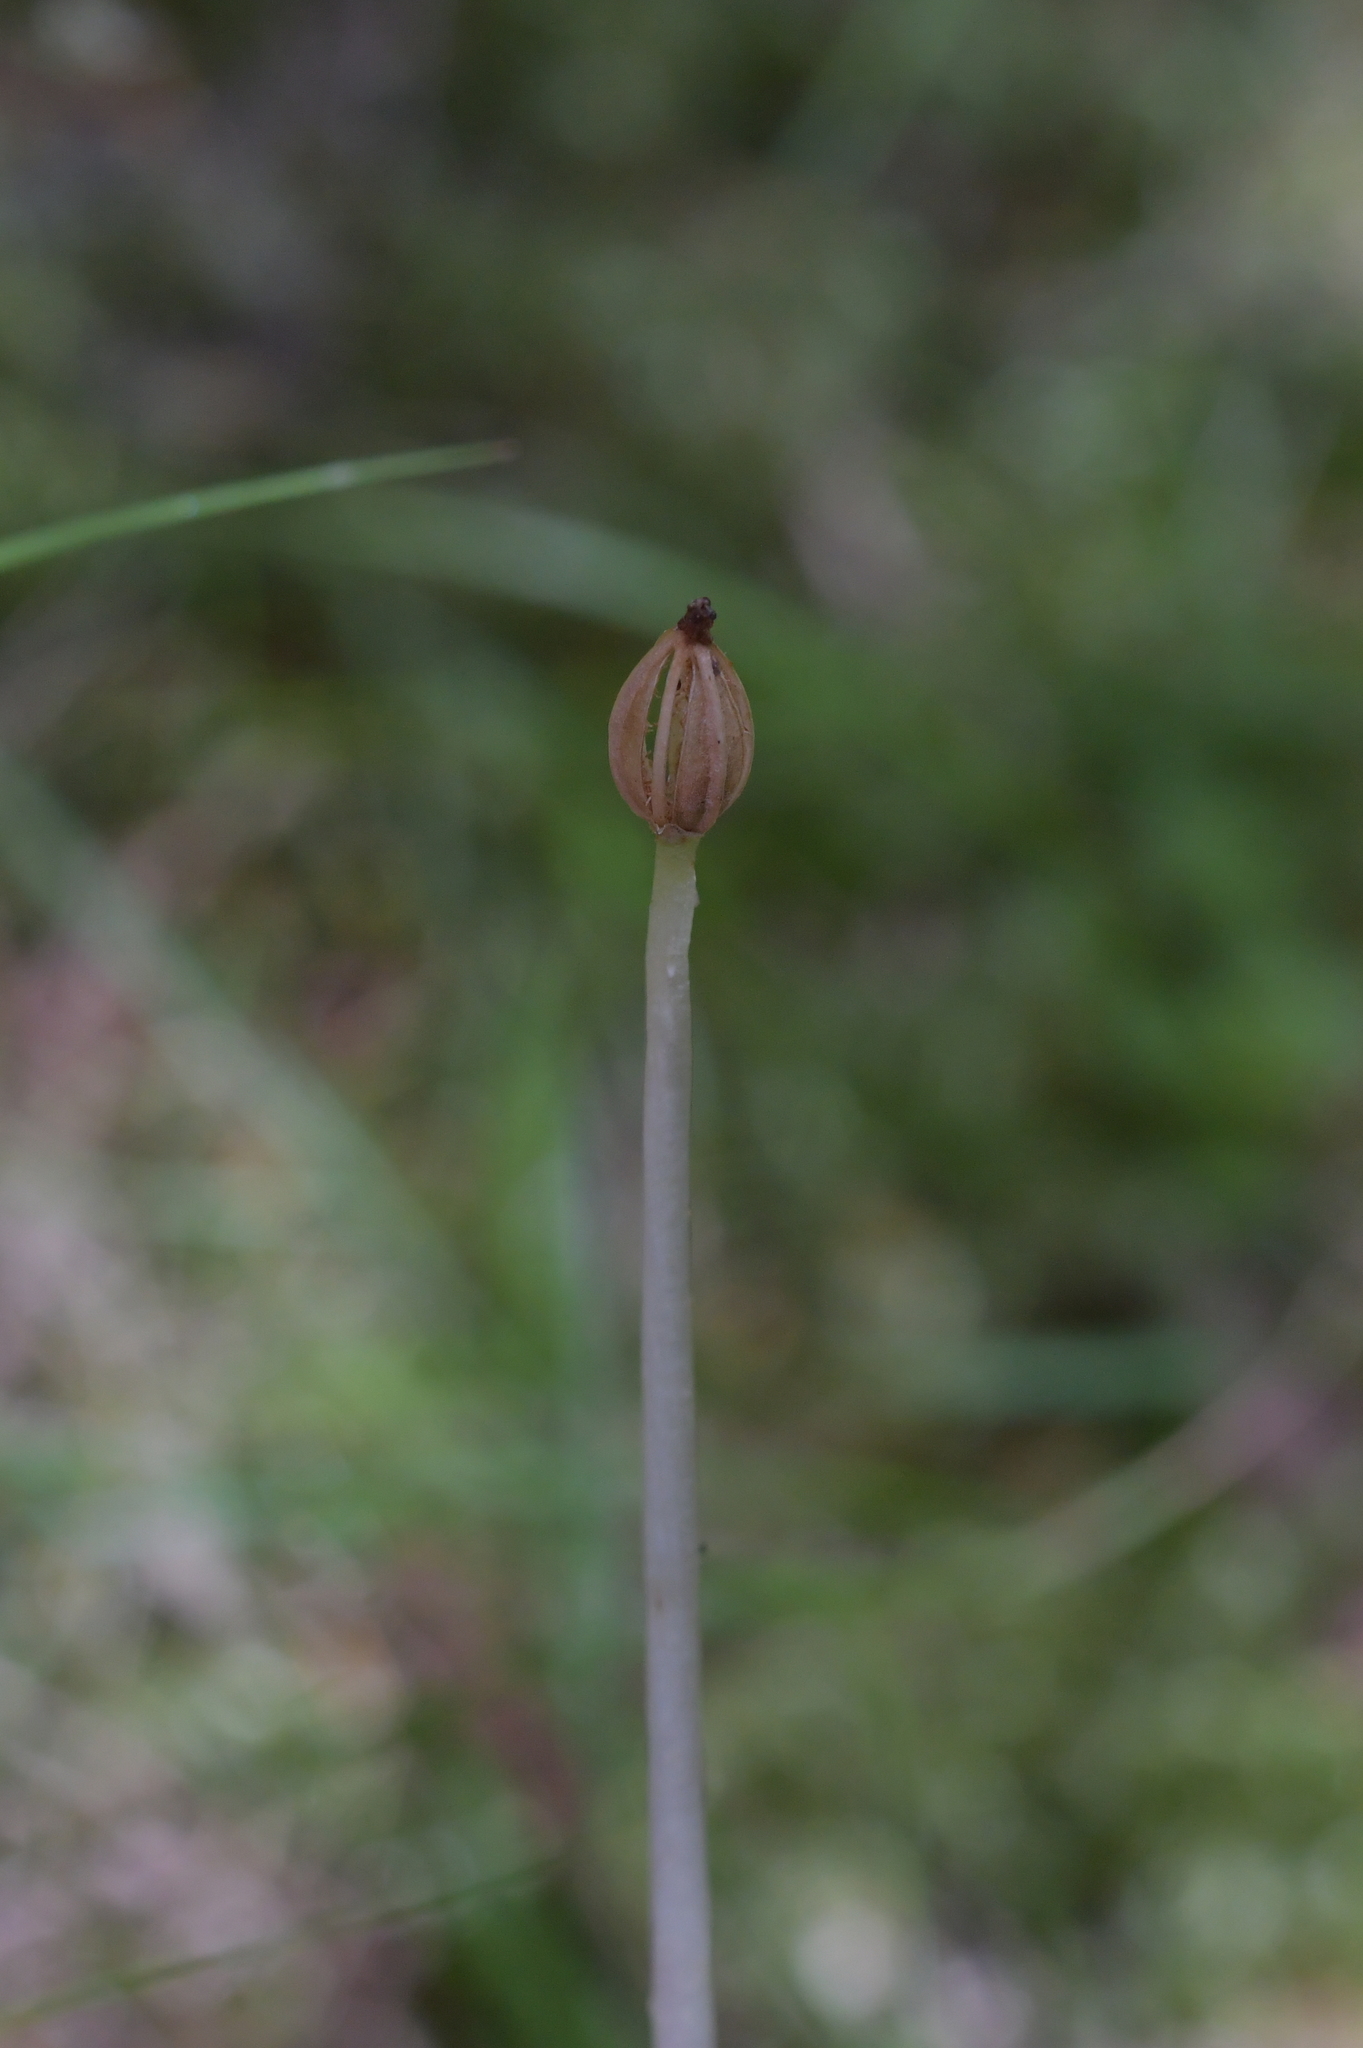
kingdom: Plantae
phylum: Tracheophyta
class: Liliopsida
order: Asparagales
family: Orchidaceae
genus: Corybas
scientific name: Corybas cheesemanii
